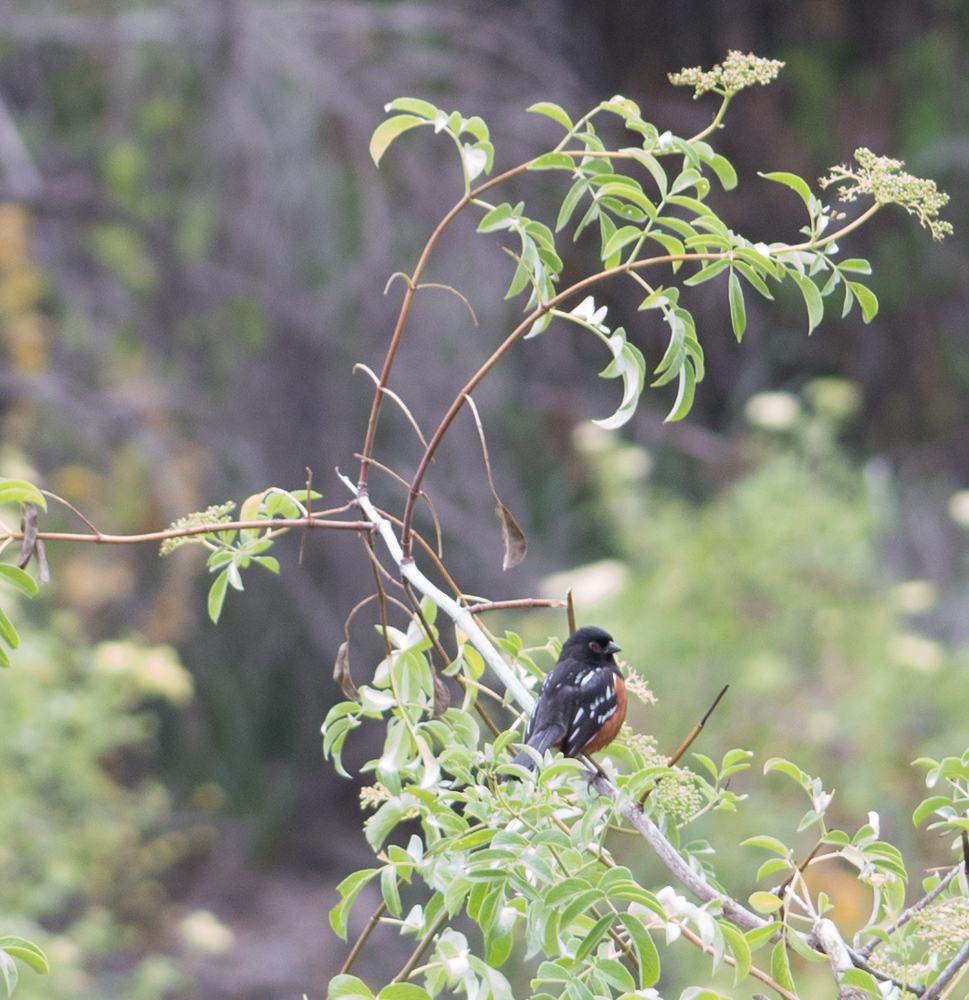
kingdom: Animalia
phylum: Chordata
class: Aves
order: Passeriformes
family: Passerellidae
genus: Pipilo
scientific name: Pipilo maculatus
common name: Spotted towhee
